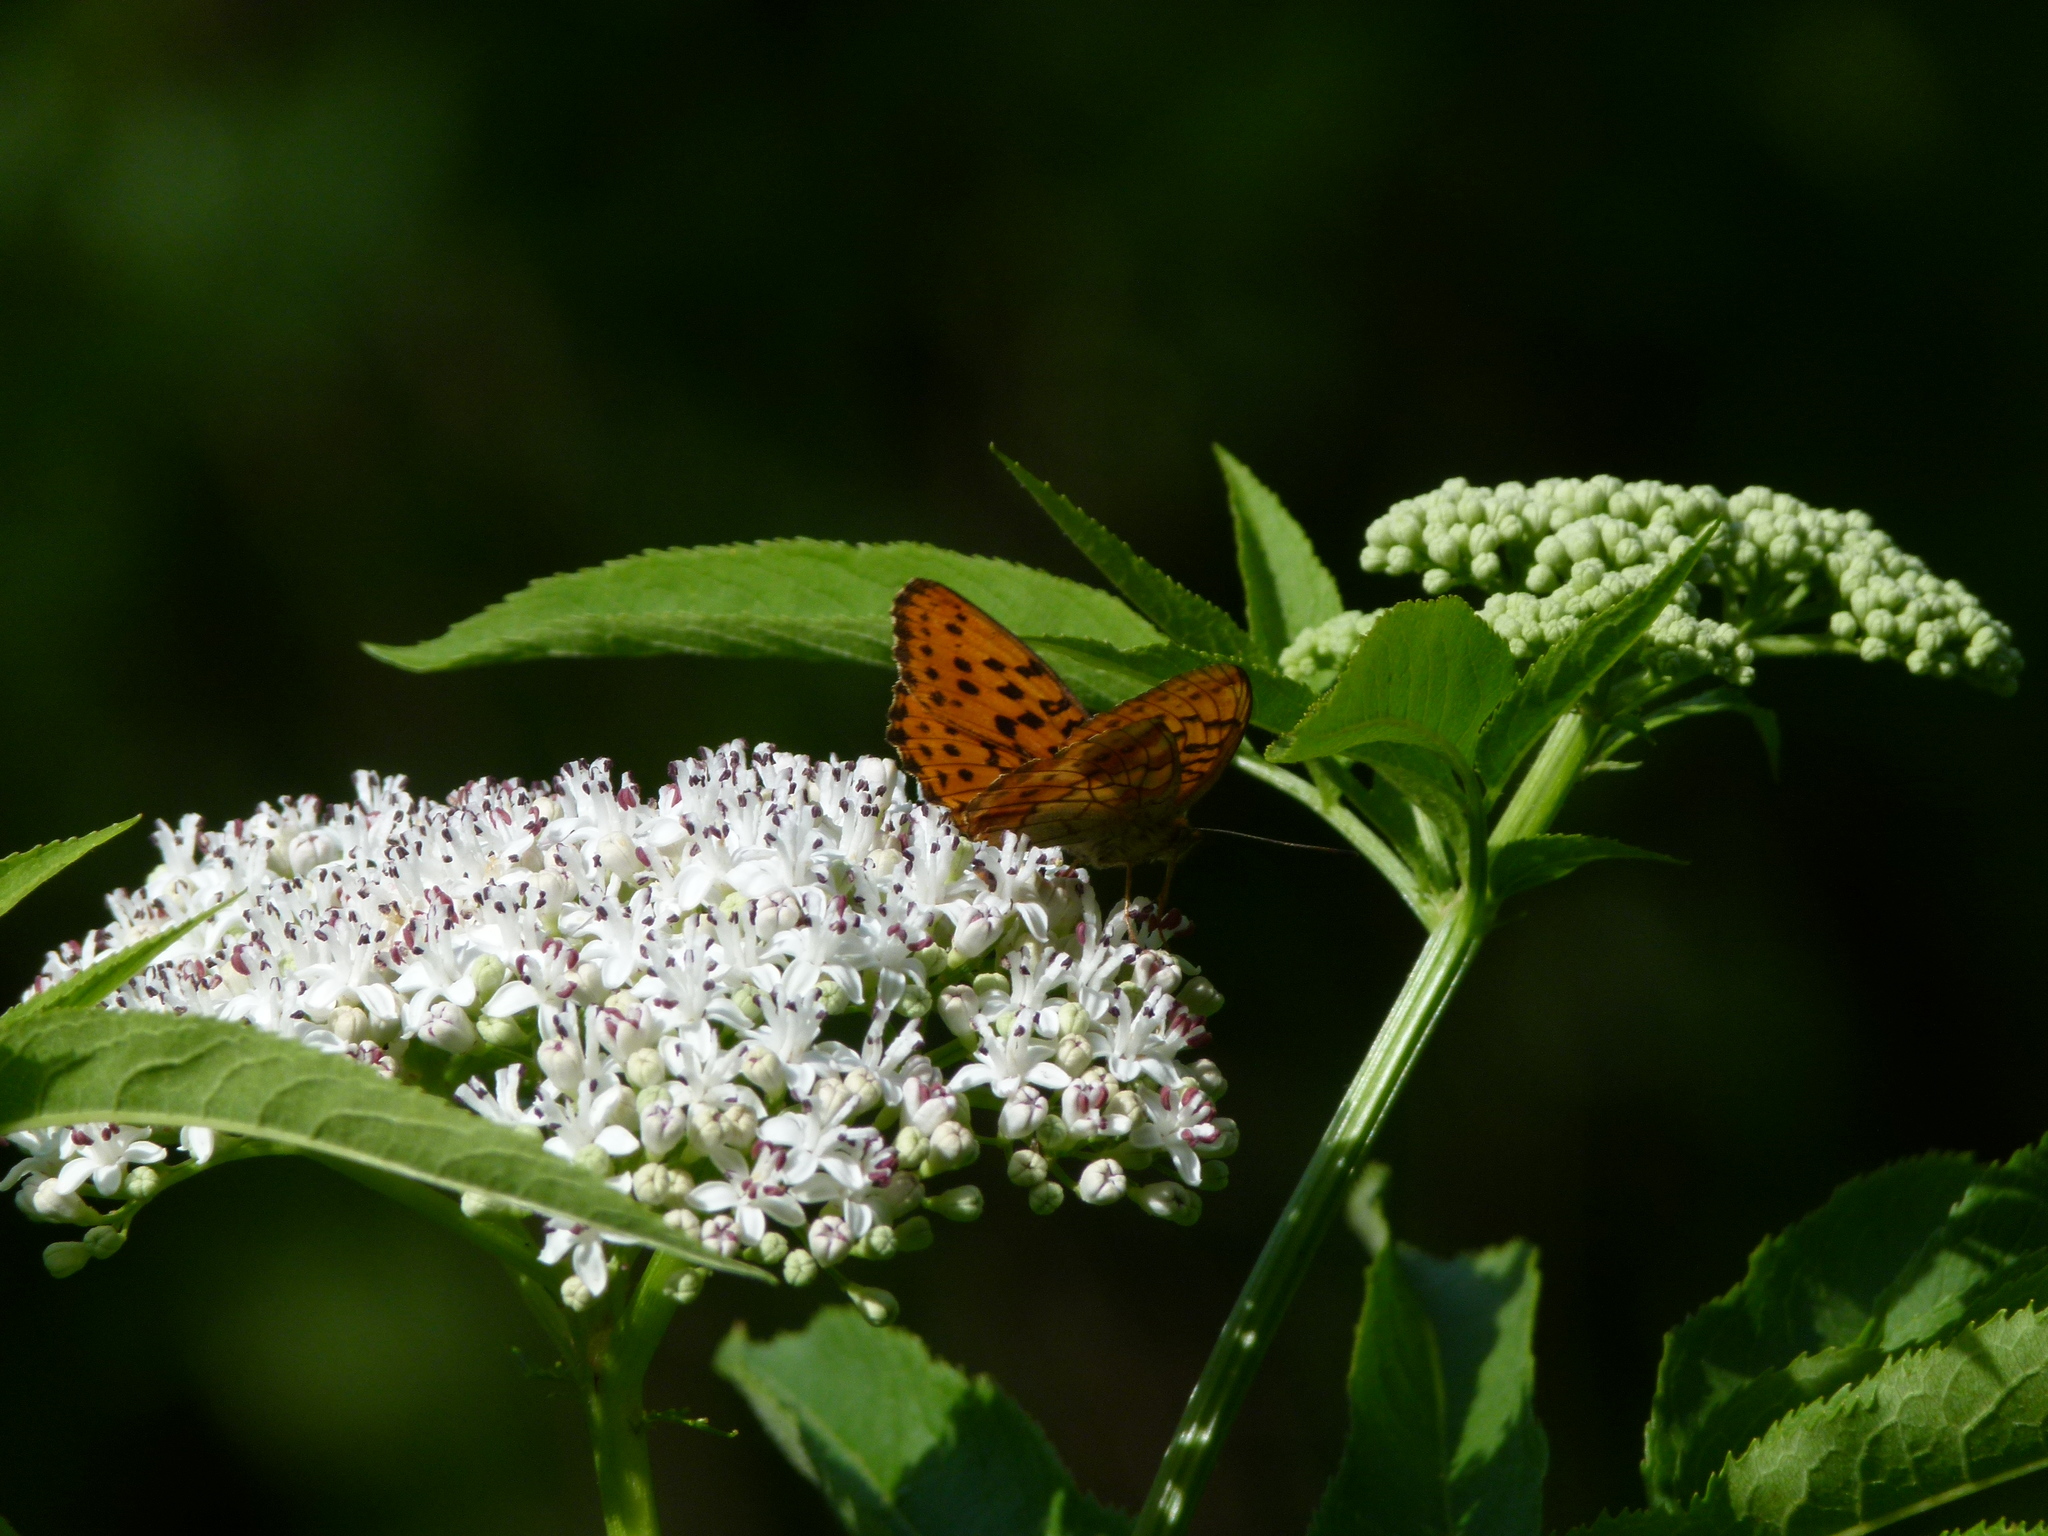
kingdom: Animalia
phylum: Arthropoda
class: Insecta
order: Lepidoptera
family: Nymphalidae
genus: Brenthis
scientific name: Brenthis daphne
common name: Marbled fritillary
